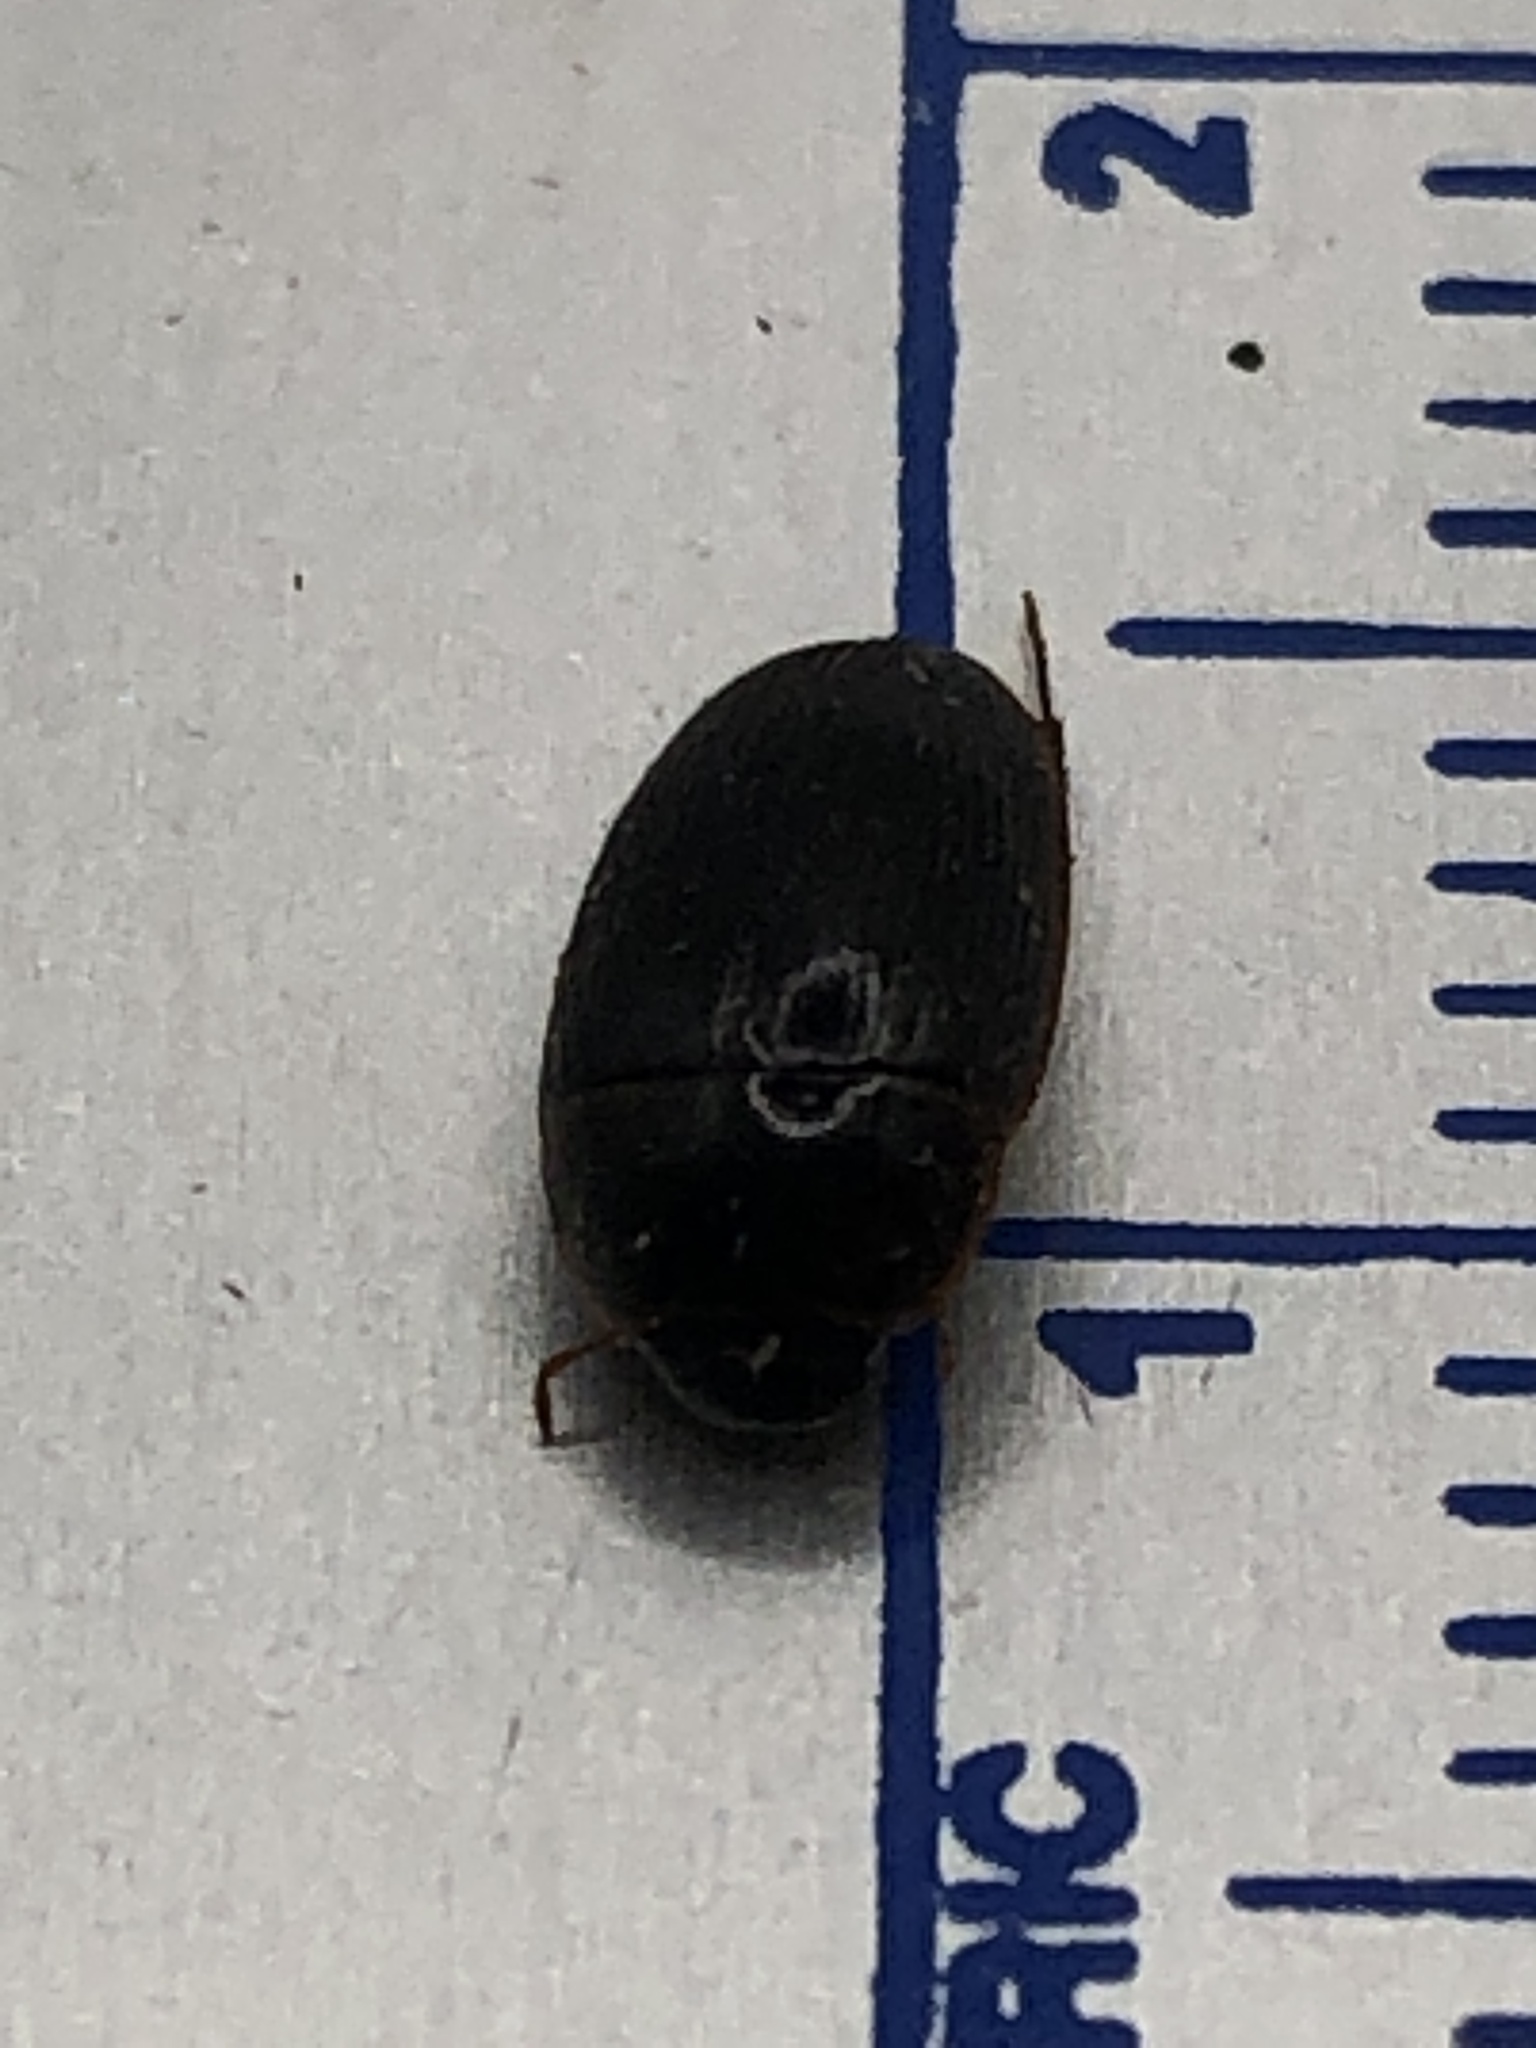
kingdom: Animalia
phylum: Arthropoda
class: Insecta
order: Coleoptera
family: Hydrophilidae
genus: Cymbiodyta
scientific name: Cymbiodyta bifida
